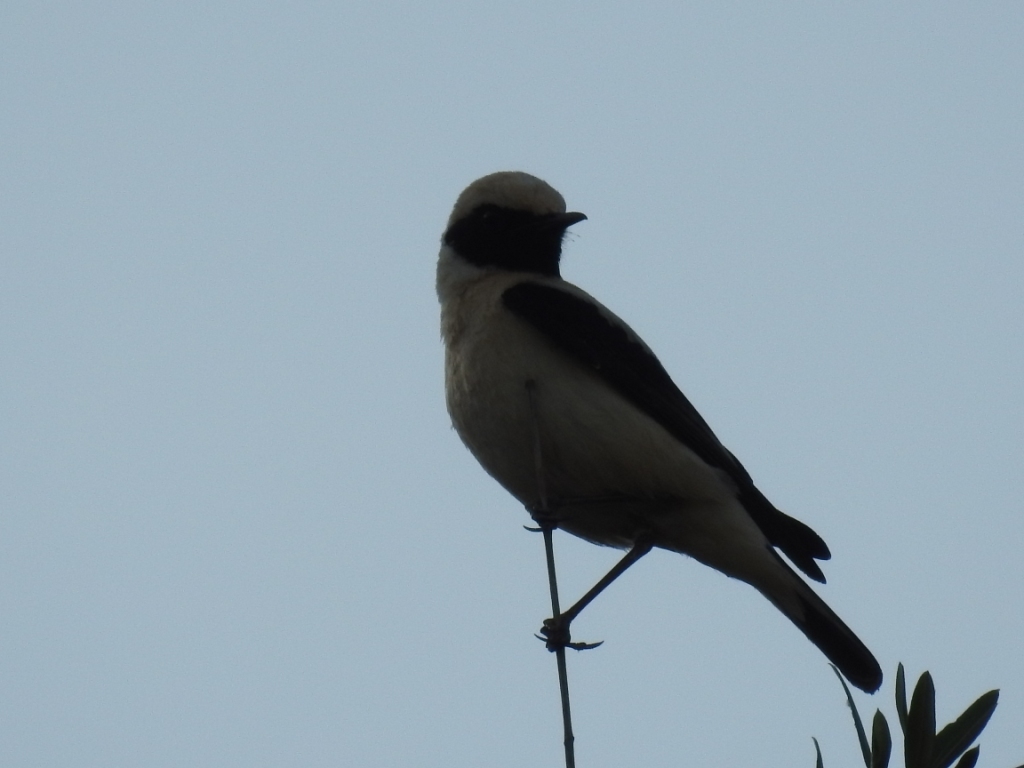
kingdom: Animalia
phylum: Chordata
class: Aves
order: Passeriformes
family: Muscicapidae
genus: Oenanthe
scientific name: Oenanthe hispanica
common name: Black-eared wheatear
